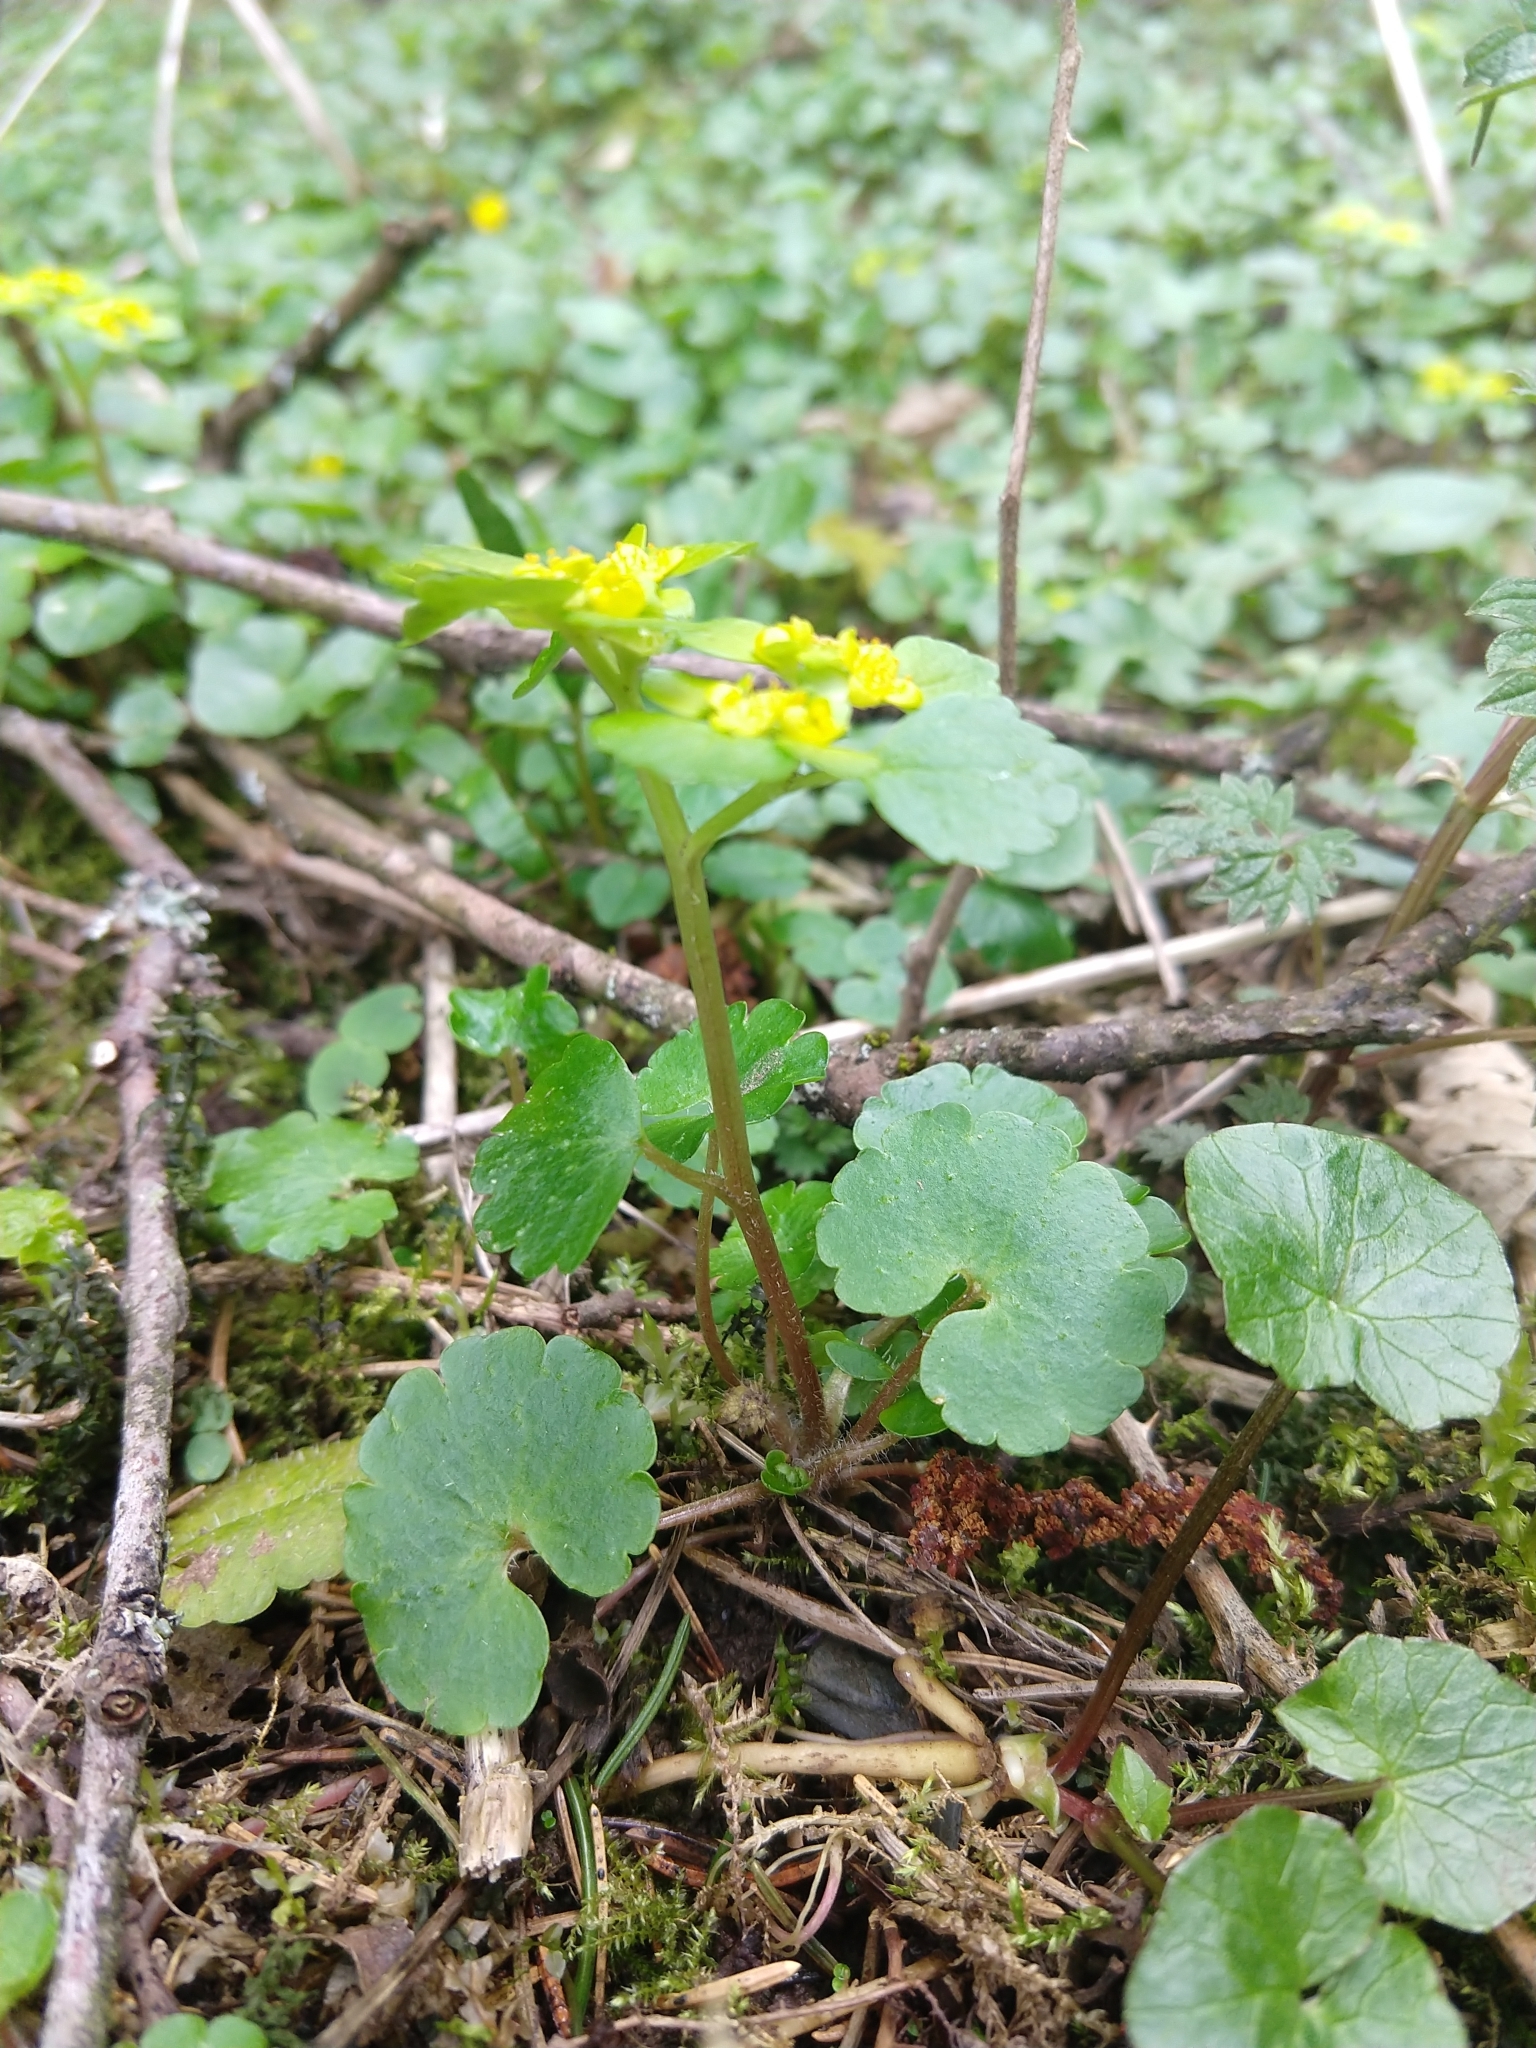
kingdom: Plantae
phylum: Tracheophyta
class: Magnoliopsida
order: Saxifragales
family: Saxifragaceae
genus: Chrysosplenium
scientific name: Chrysosplenium alternifolium
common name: Alternate-leaved golden-saxifrage
